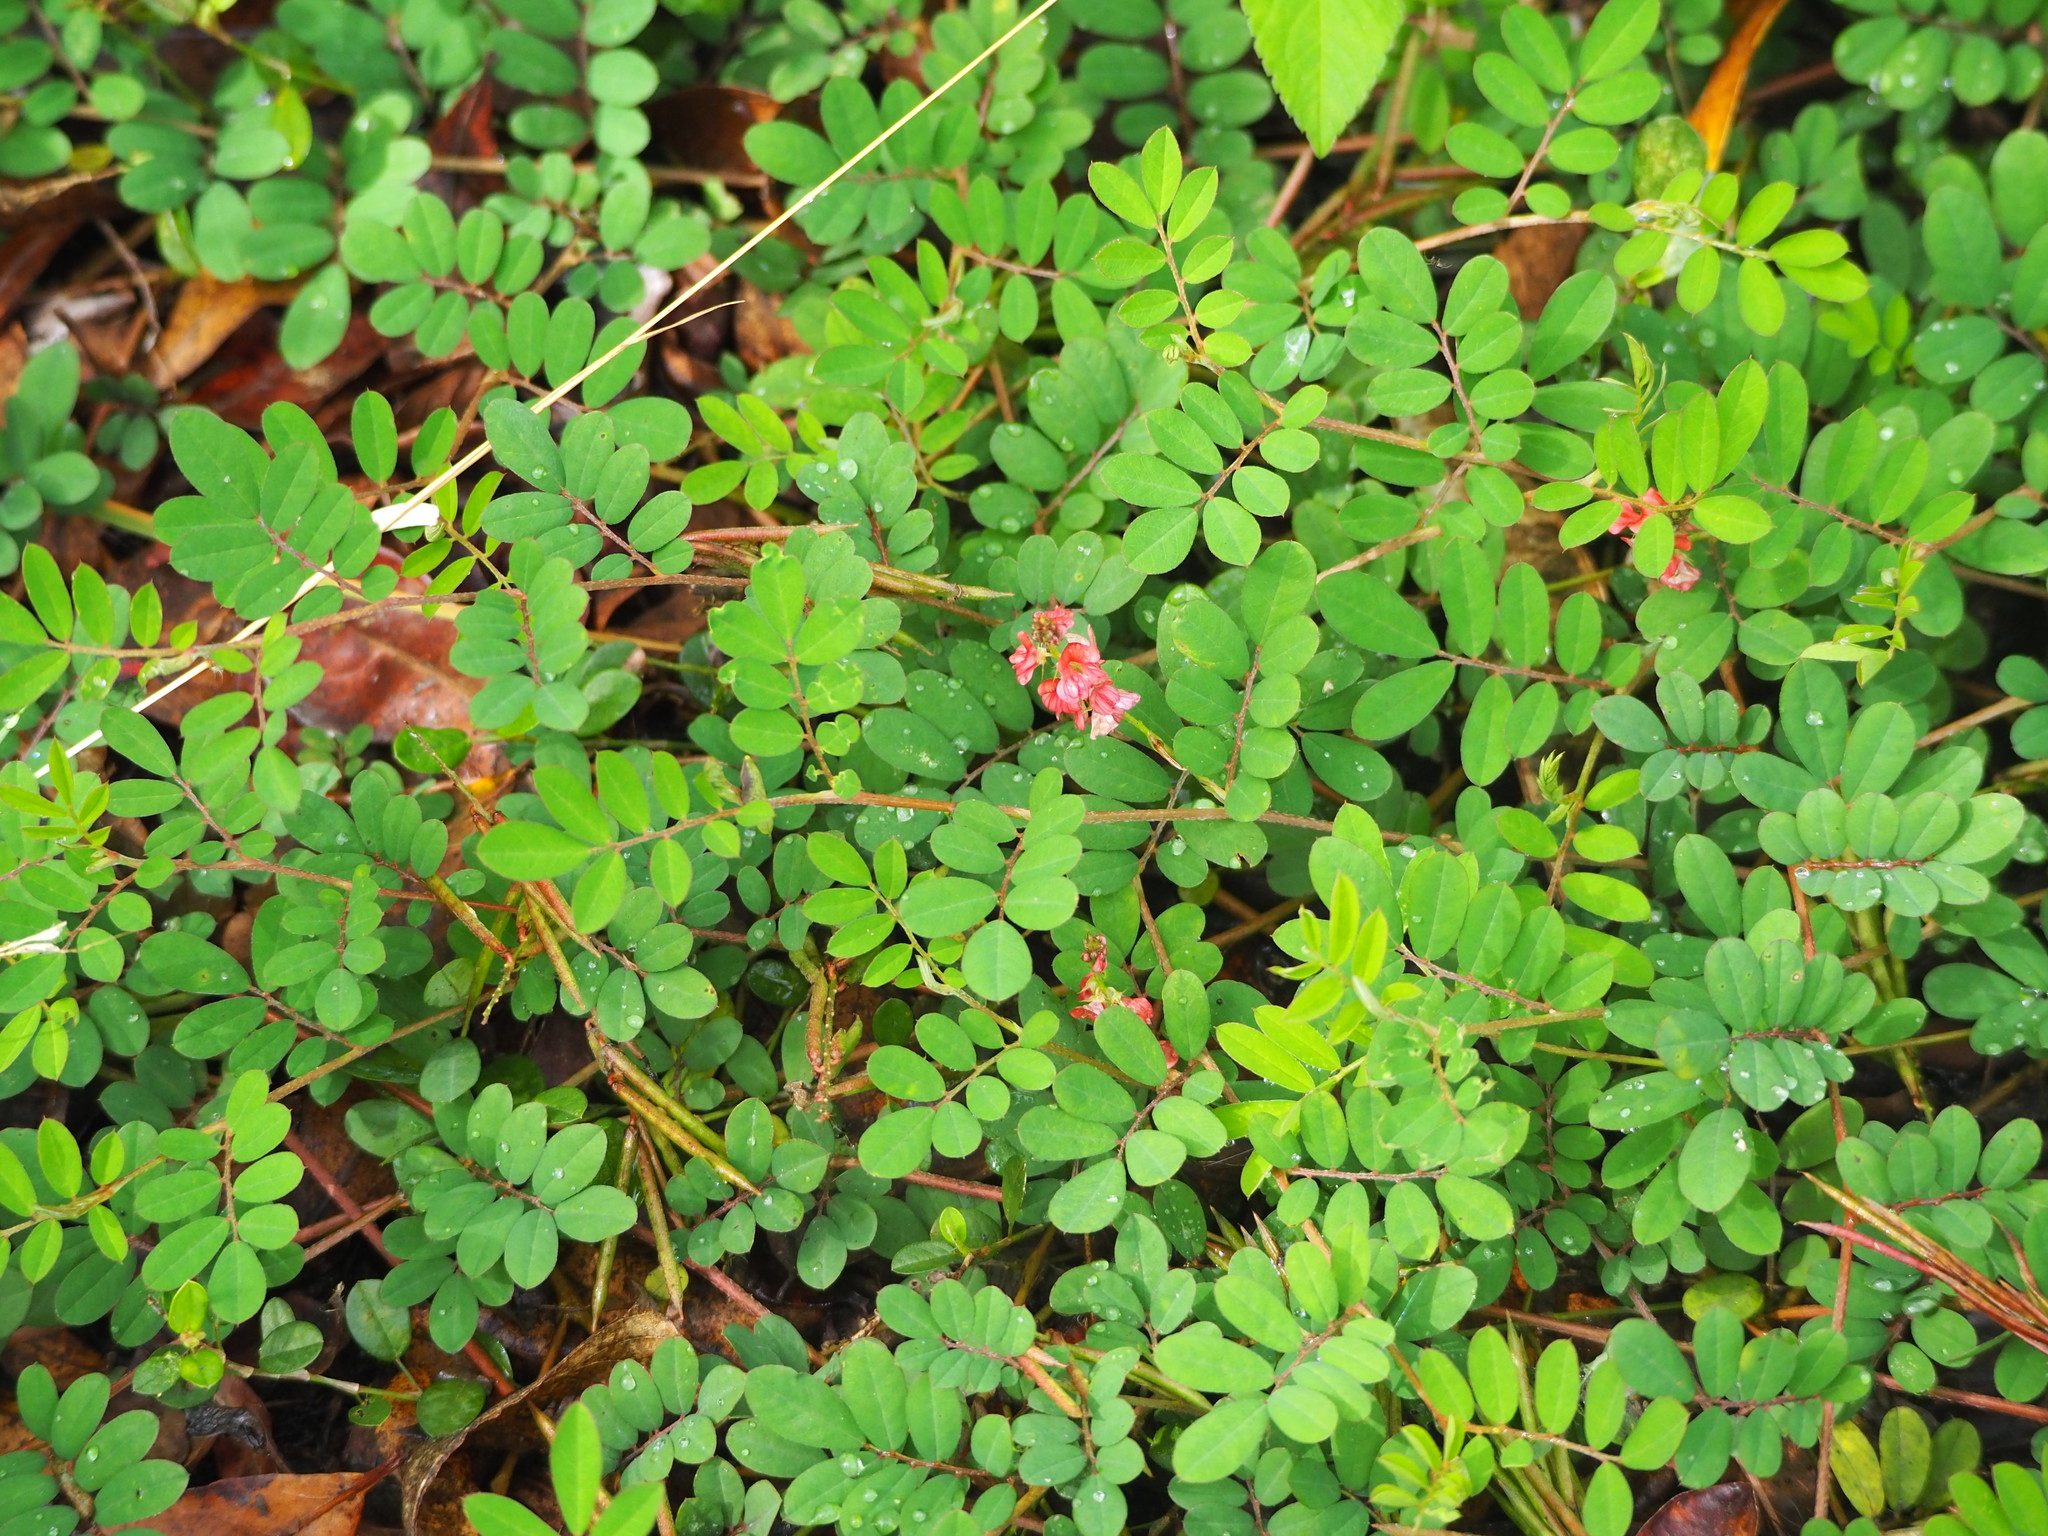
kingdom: Plantae
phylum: Tracheophyta
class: Magnoliopsida
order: Fabales
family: Fabaceae
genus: Indigofera
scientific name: Indigofera spicata
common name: Creeping indigo
